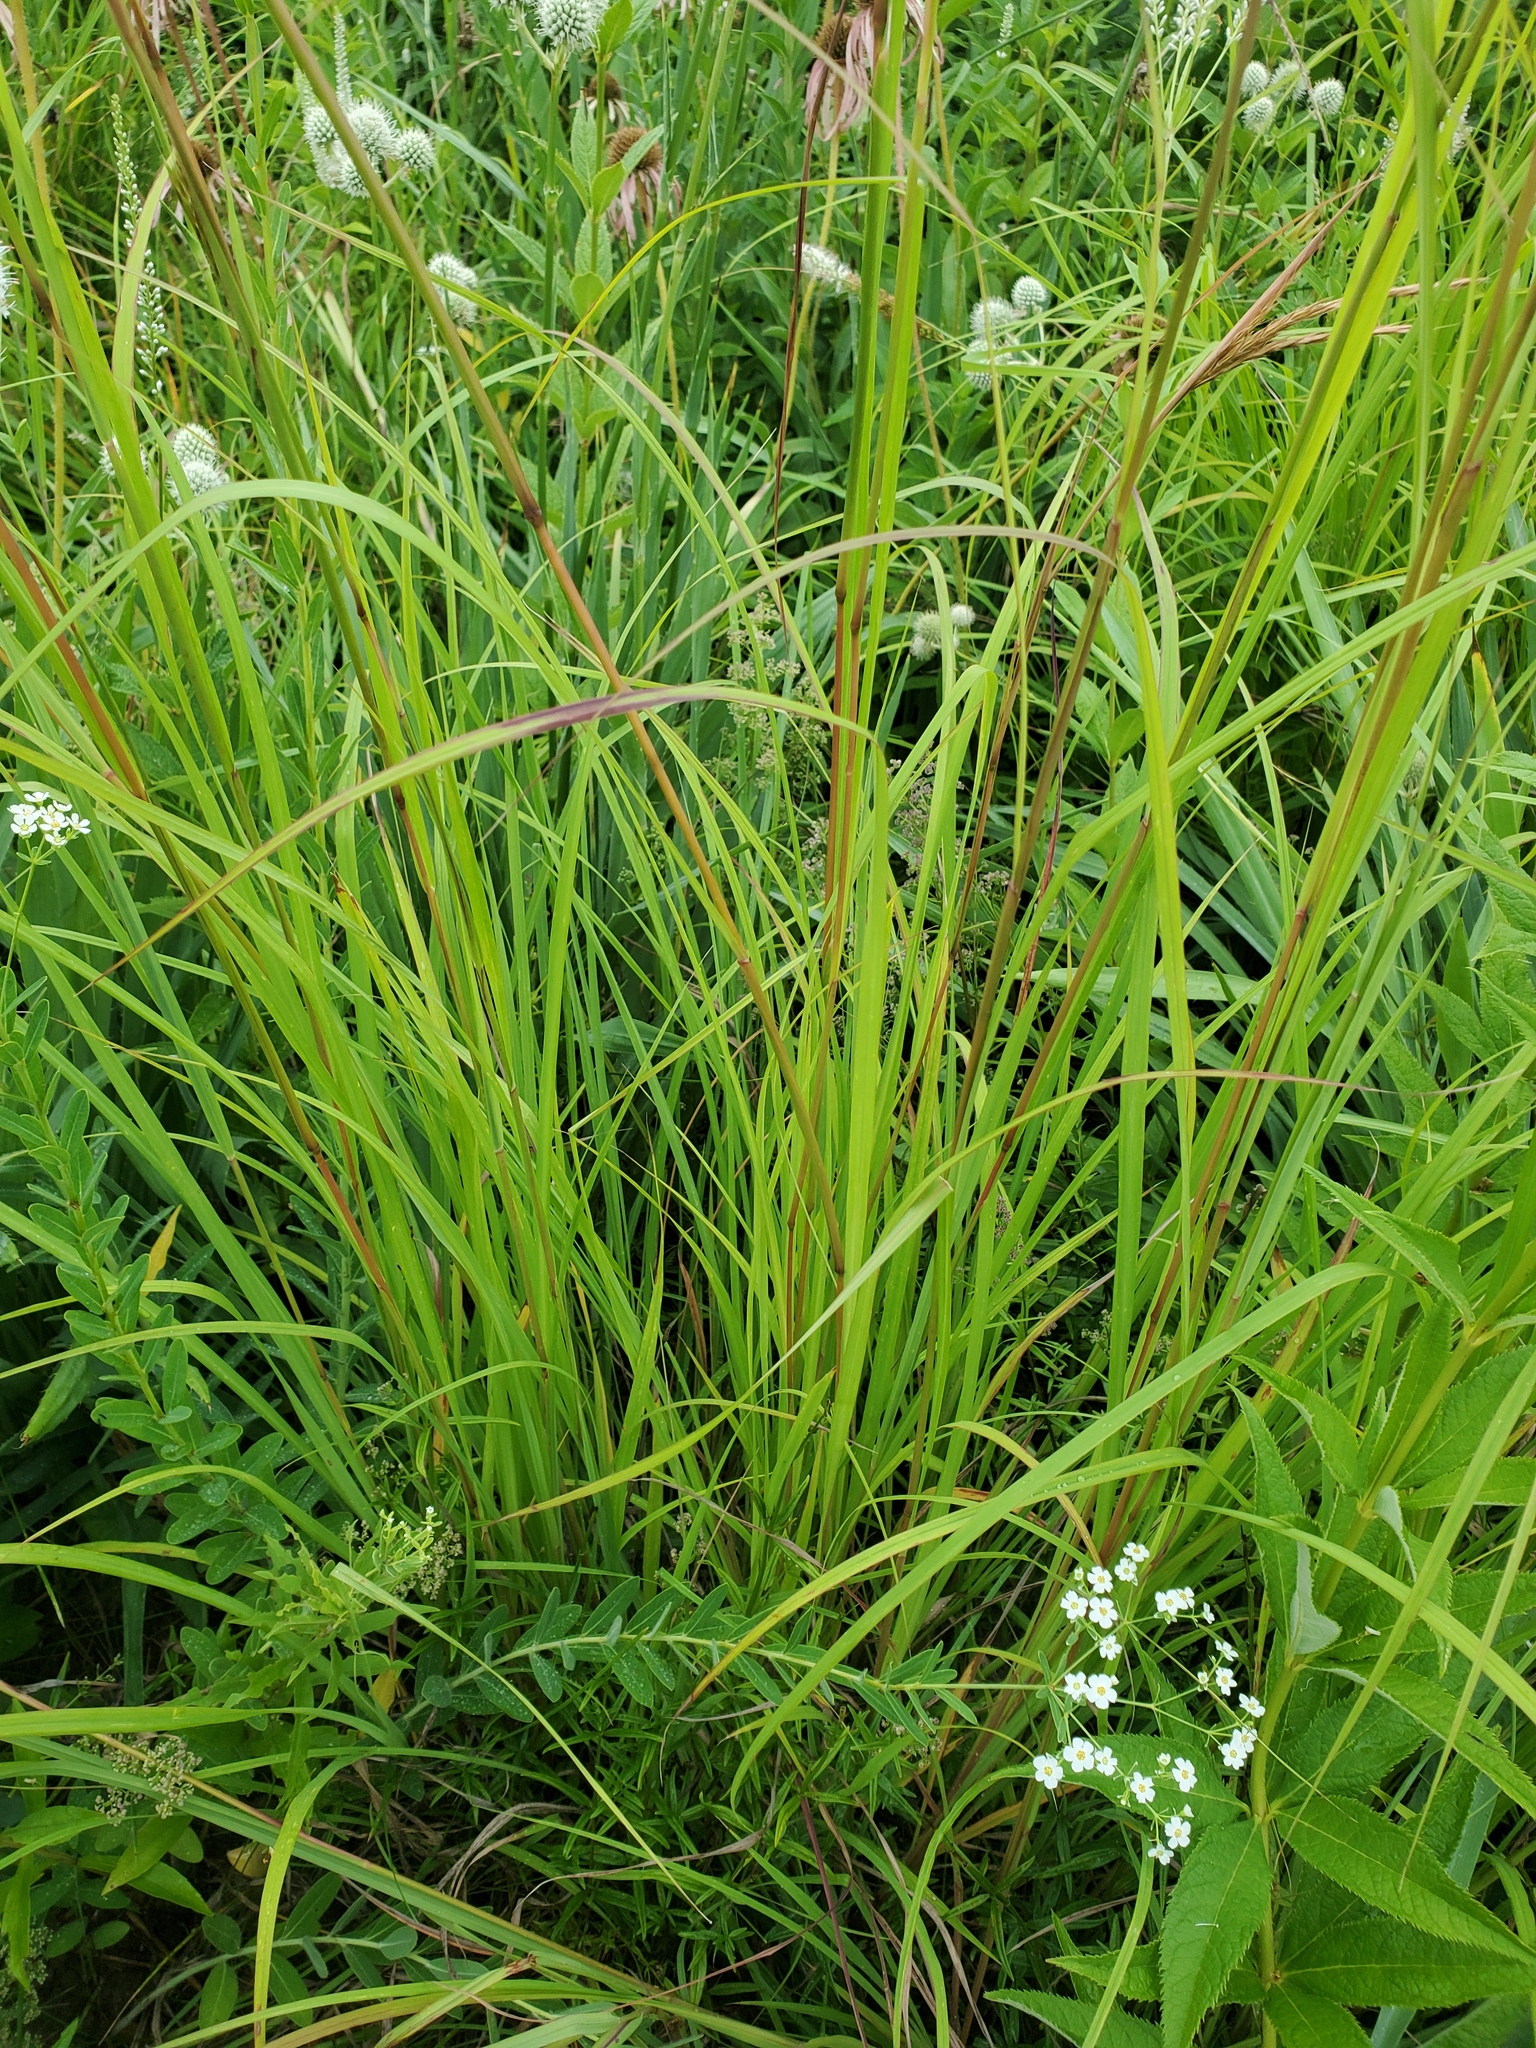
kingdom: Plantae
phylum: Tracheophyta
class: Liliopsida
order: Poales
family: Poaceae
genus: Andropogon
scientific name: Andropogon gerardi
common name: Big bluestem
